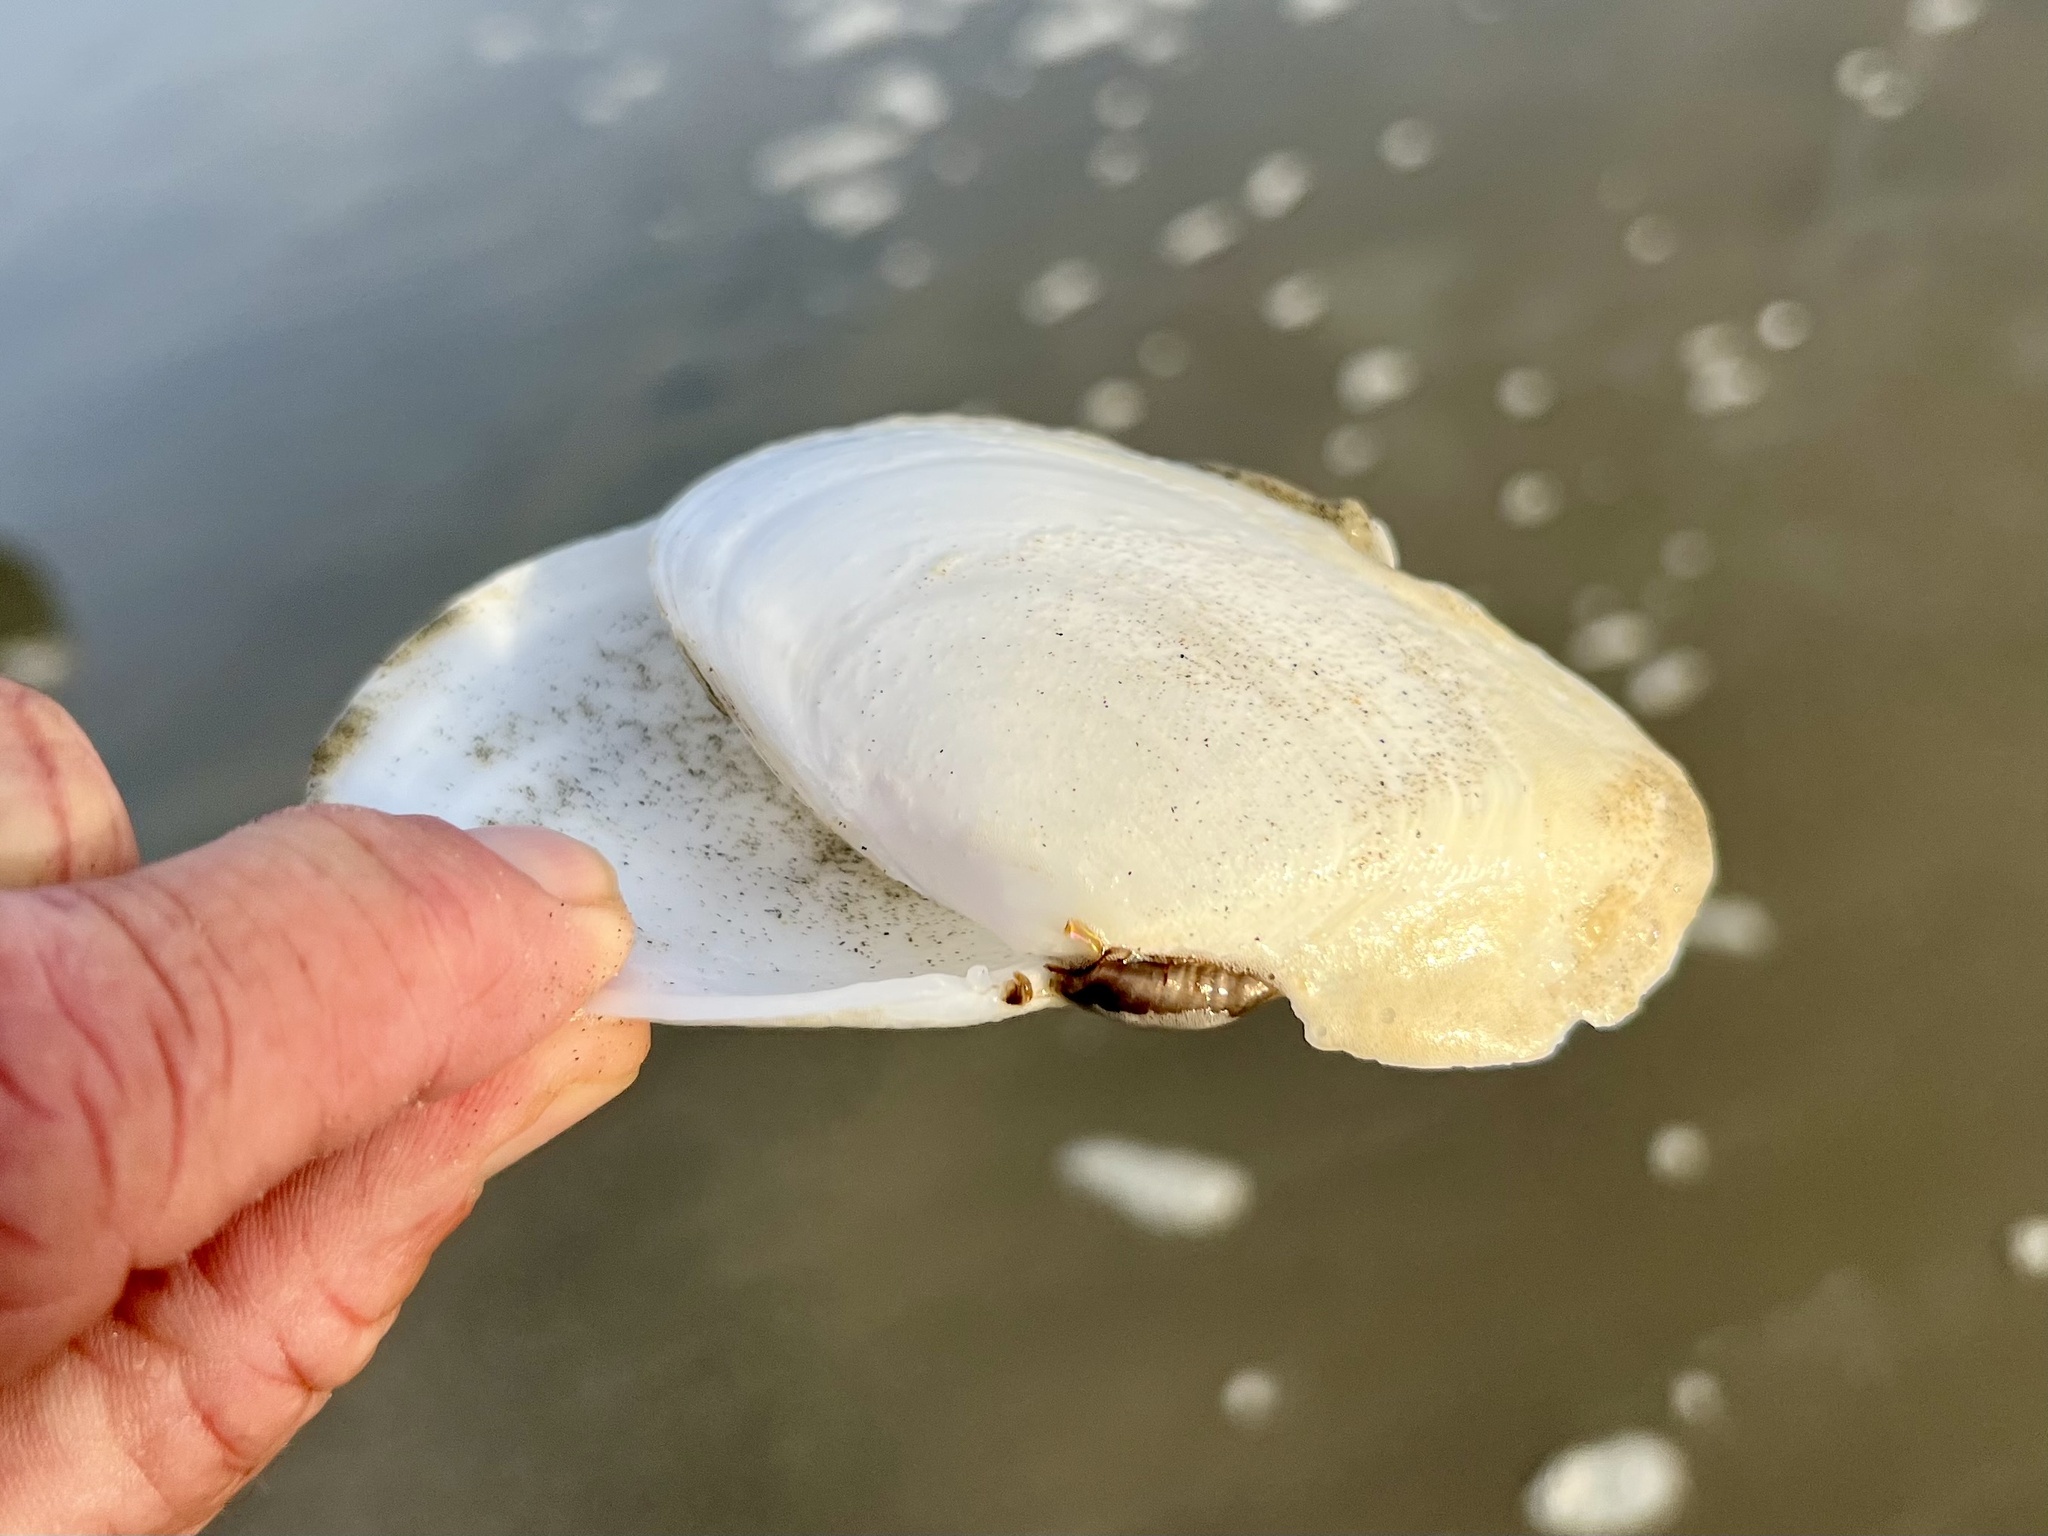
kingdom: Animalia
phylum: Mollusca
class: Bivalvia
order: Cardiida
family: Tellinidae
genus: Rexithaerus
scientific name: Rexithaerus secta
